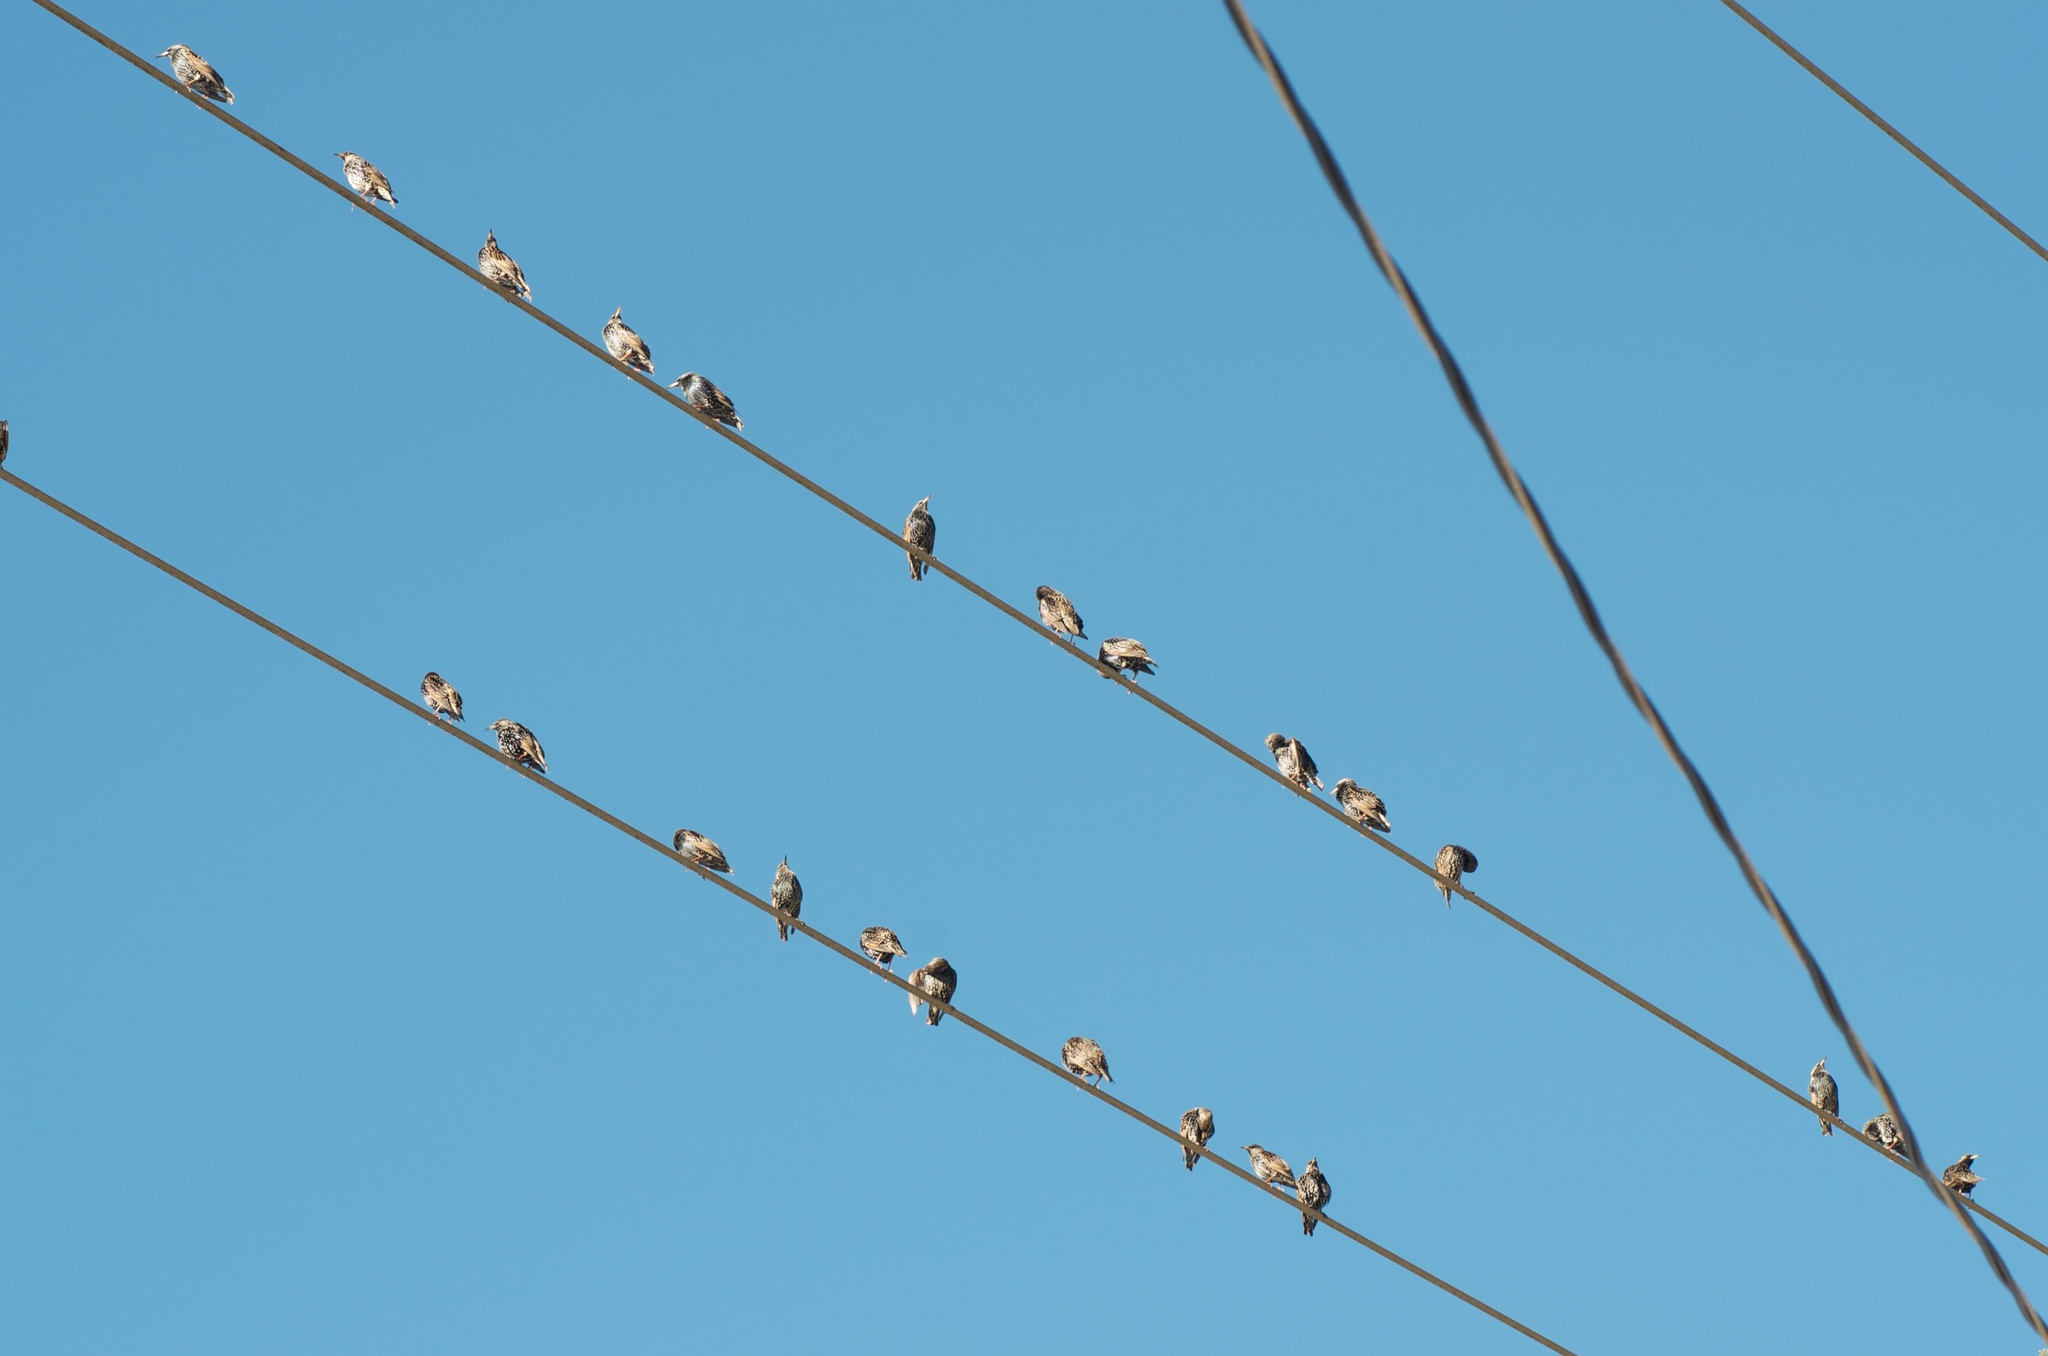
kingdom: Animalia
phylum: Chordata
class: Aves
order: Passeriformes
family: Sturnidae
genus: Sturnus
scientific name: Sturnus vulgaris
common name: Common starling
